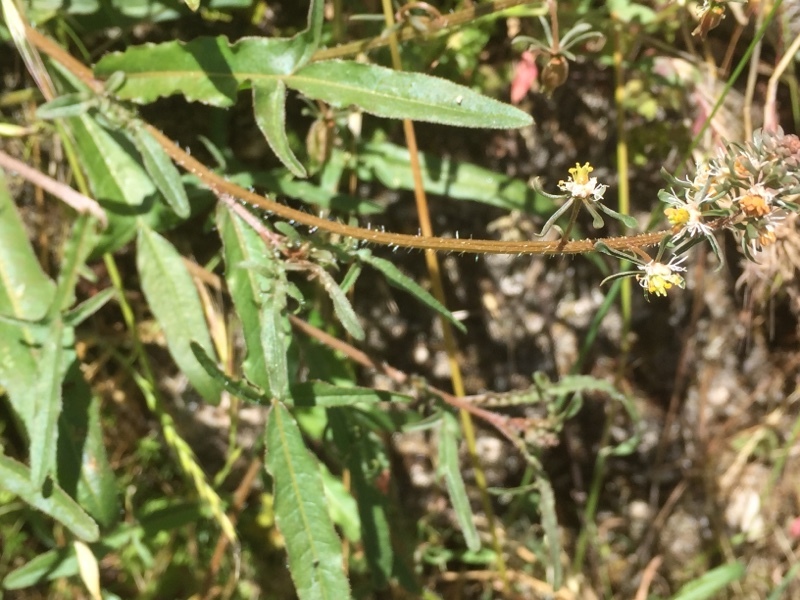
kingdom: Plantae
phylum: Tracheophyta
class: Magnoliopsida
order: Brassicales
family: Resedaceae
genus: Reseda
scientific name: Reseda phyteuma
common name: Corn mignonette
